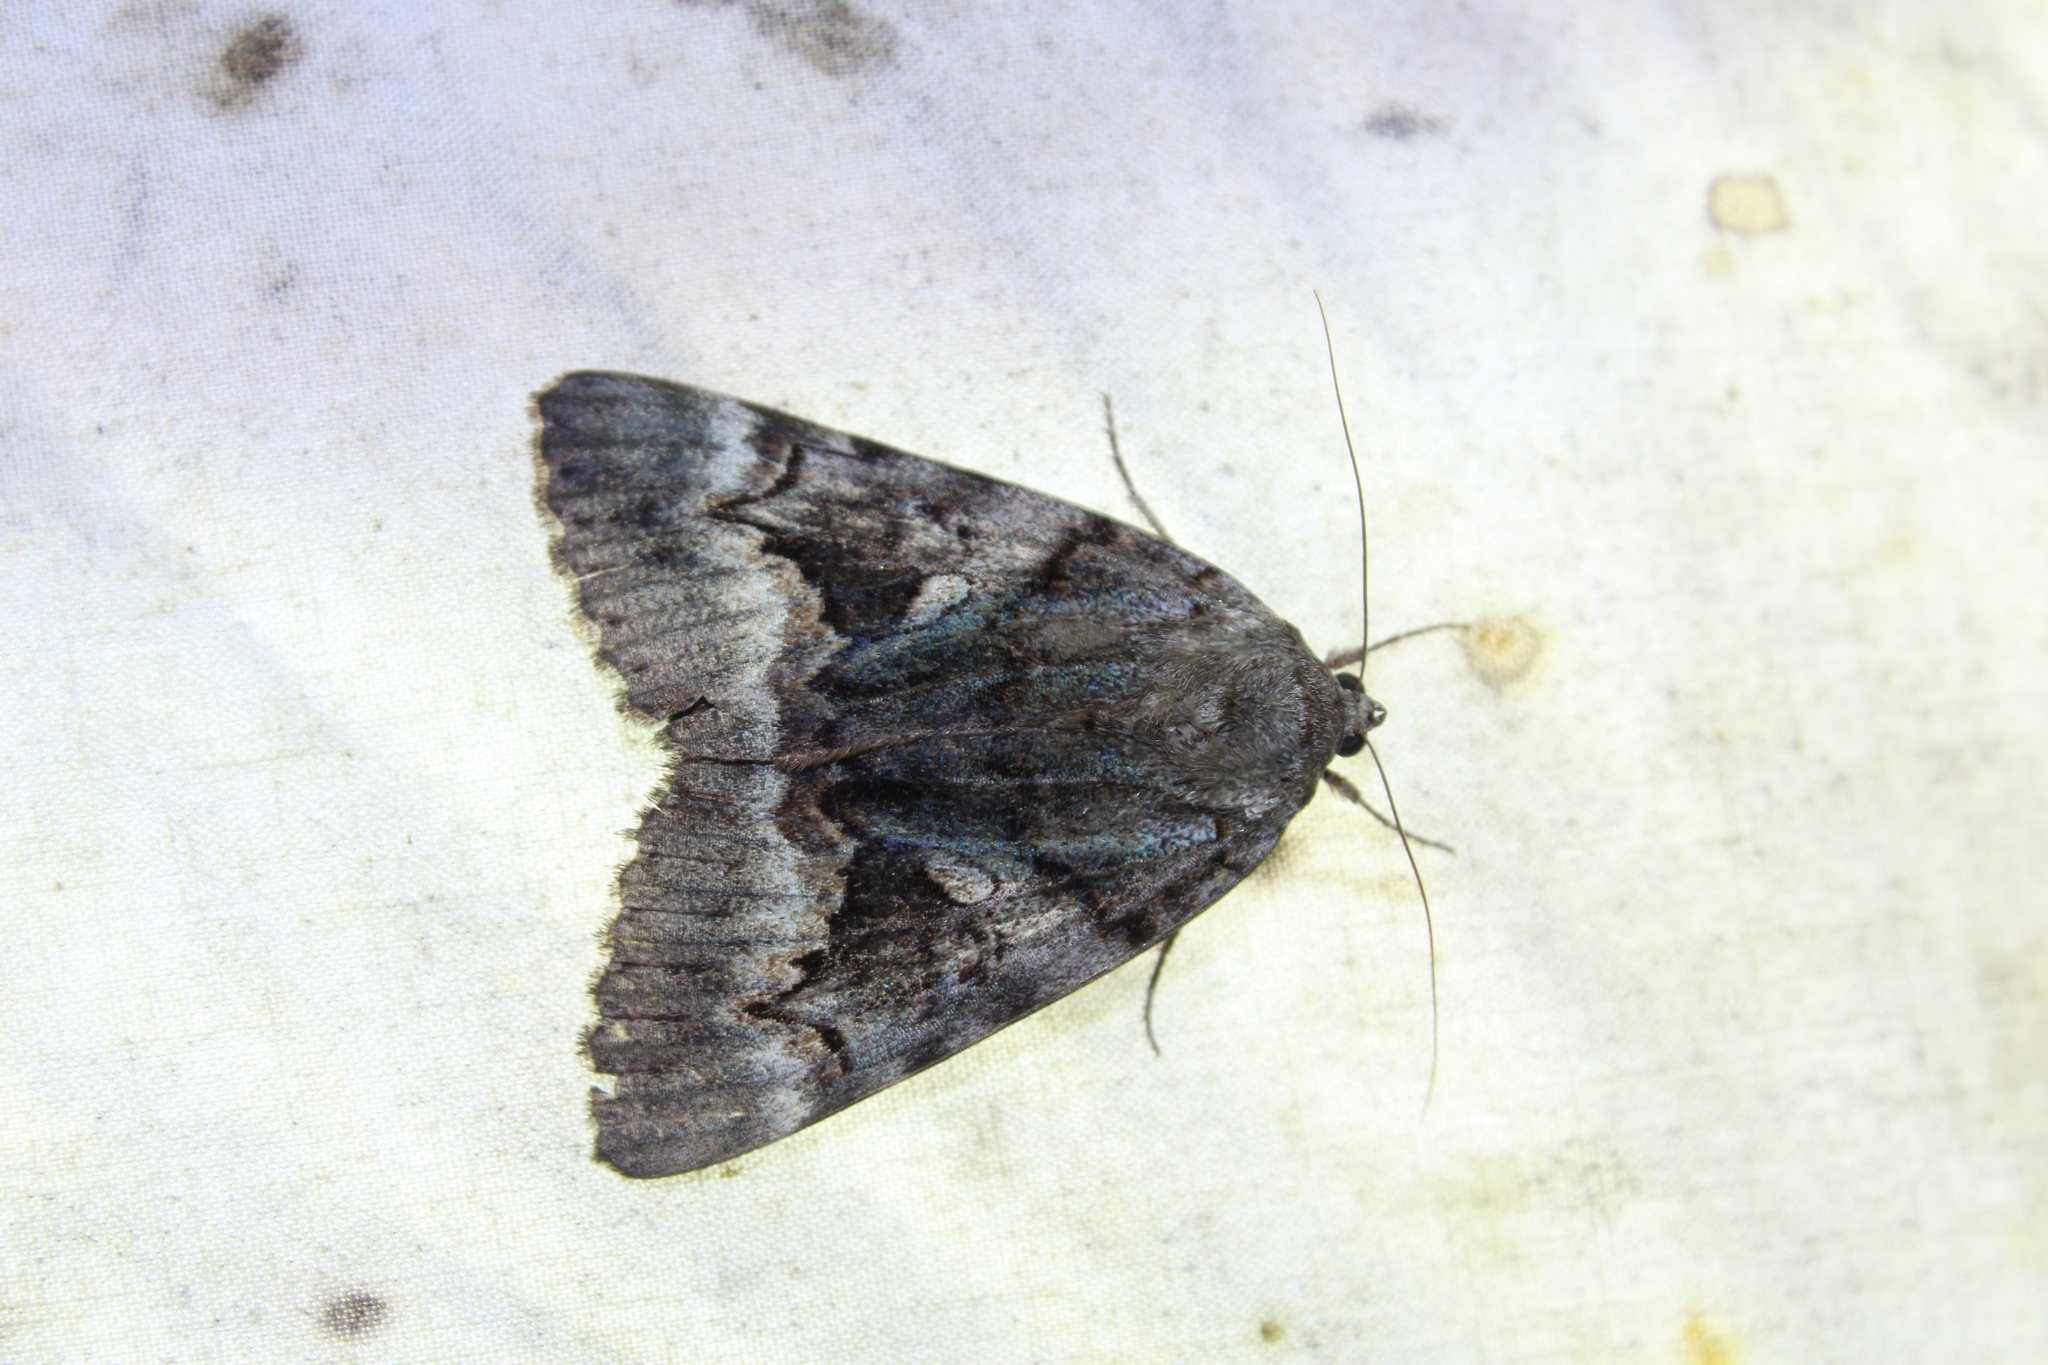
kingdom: Animalia
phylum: Arthropoda
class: Insecta
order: Lepidoptera
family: Erebidae
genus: Catocala
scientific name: Catocala epione
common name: Epione underwing
